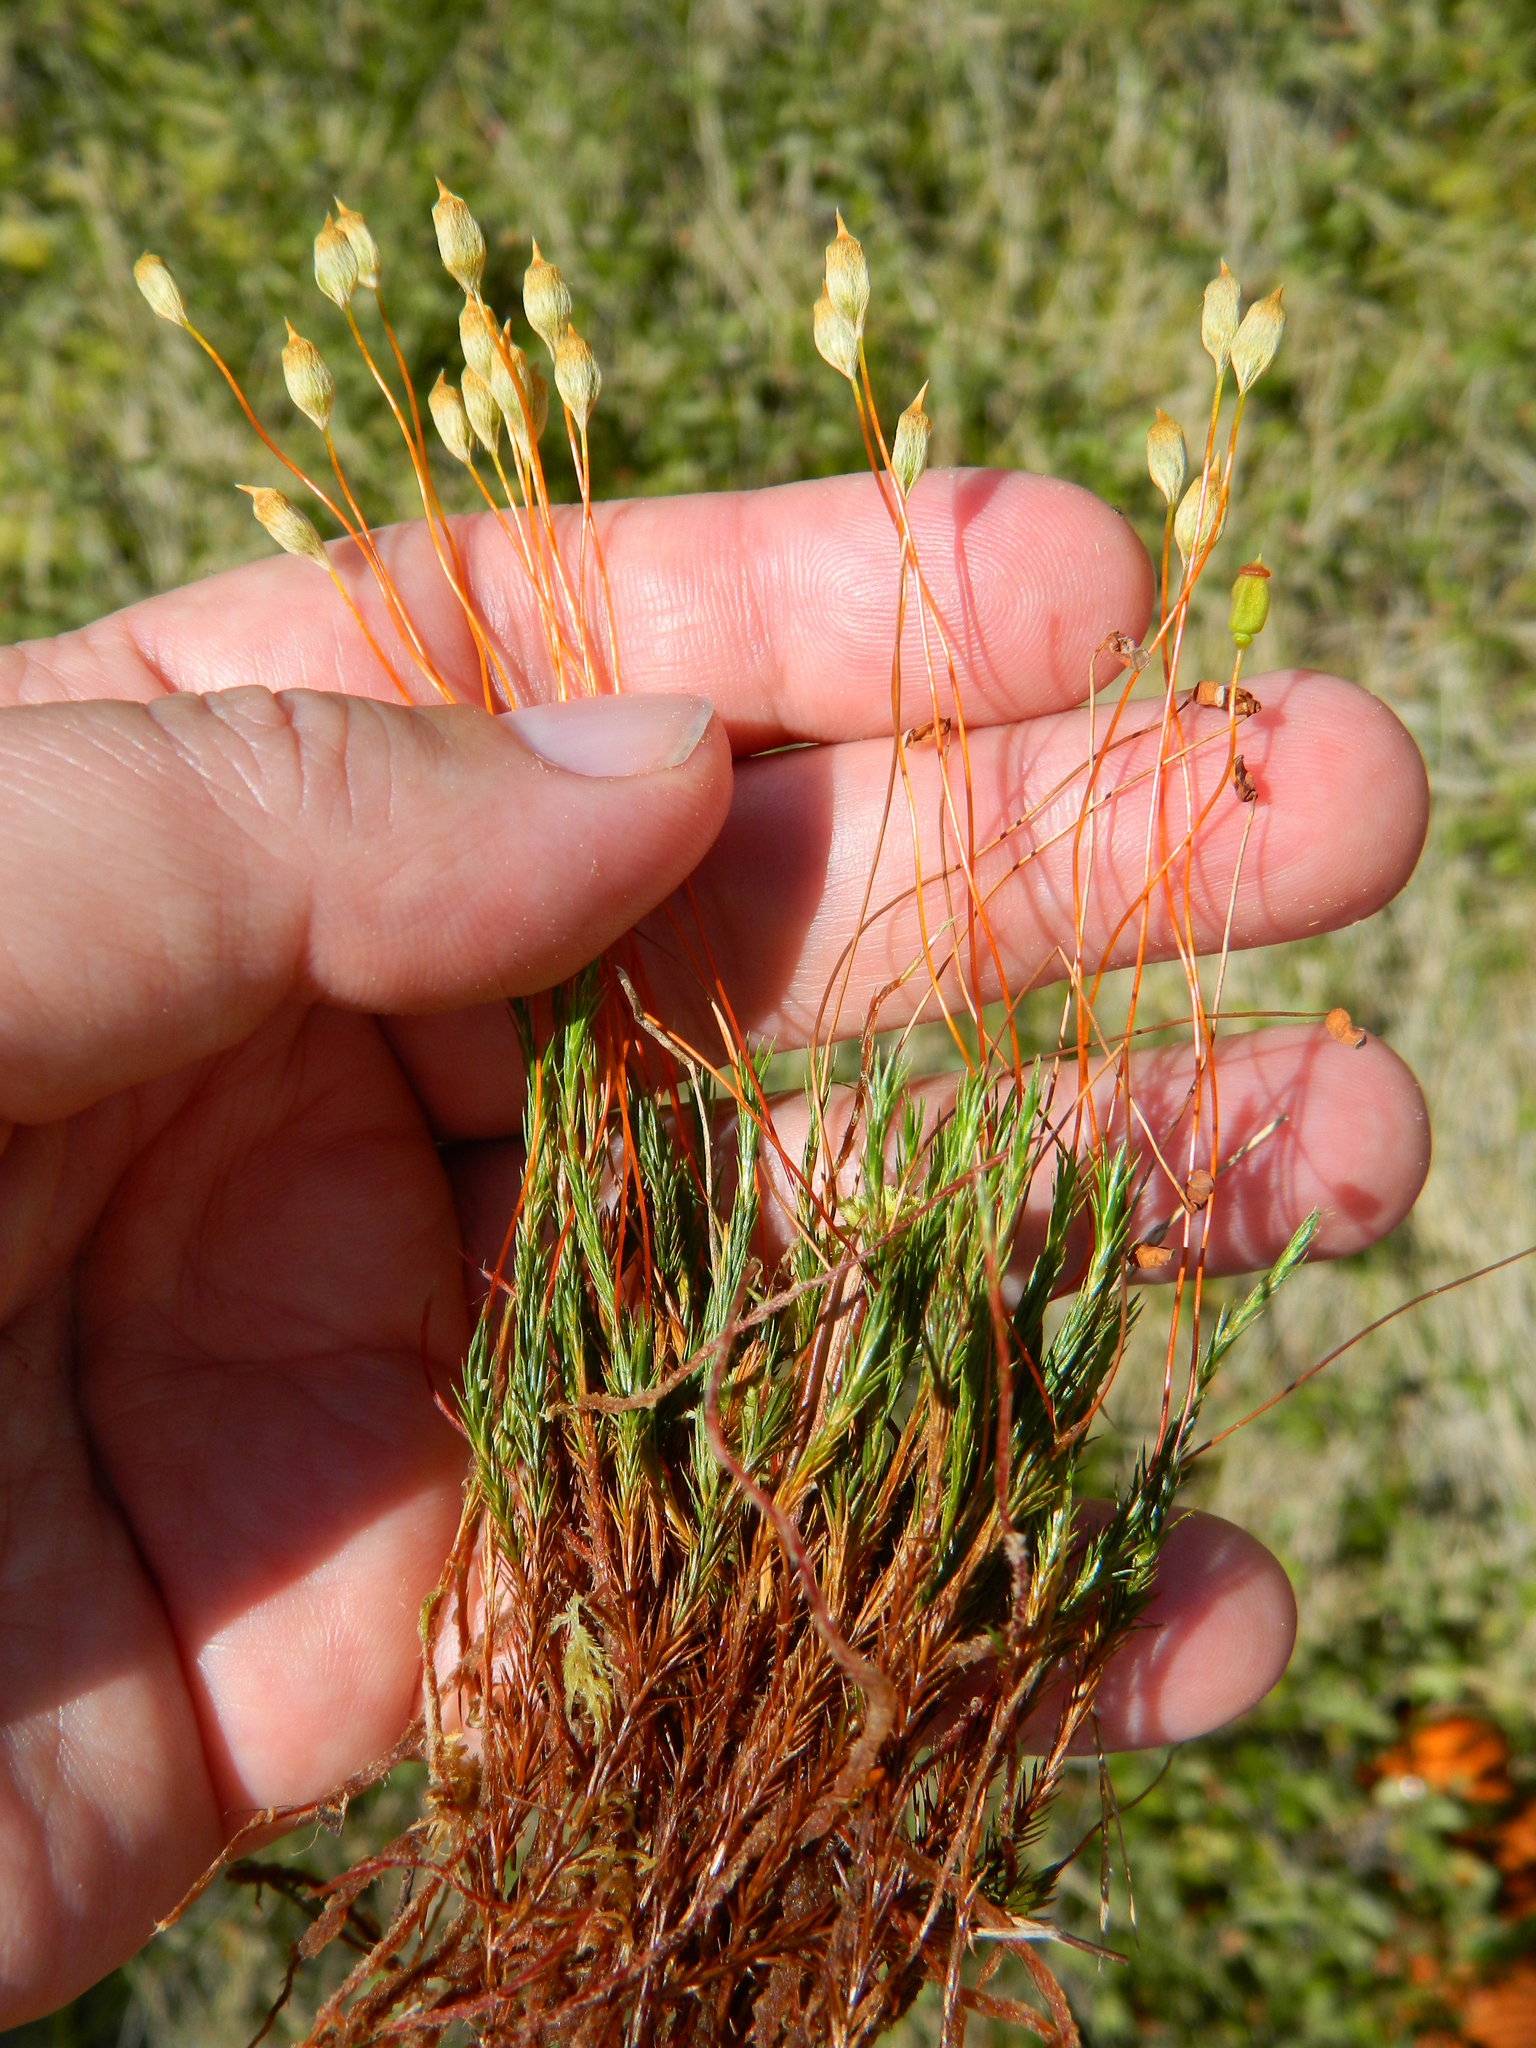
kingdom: Plantae
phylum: Bryophyta
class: Polytrichopsida
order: Polytrichales
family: Polytrichaceae
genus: Polytrichum
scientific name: Polytrichum strictum
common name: Bog haircap moss
